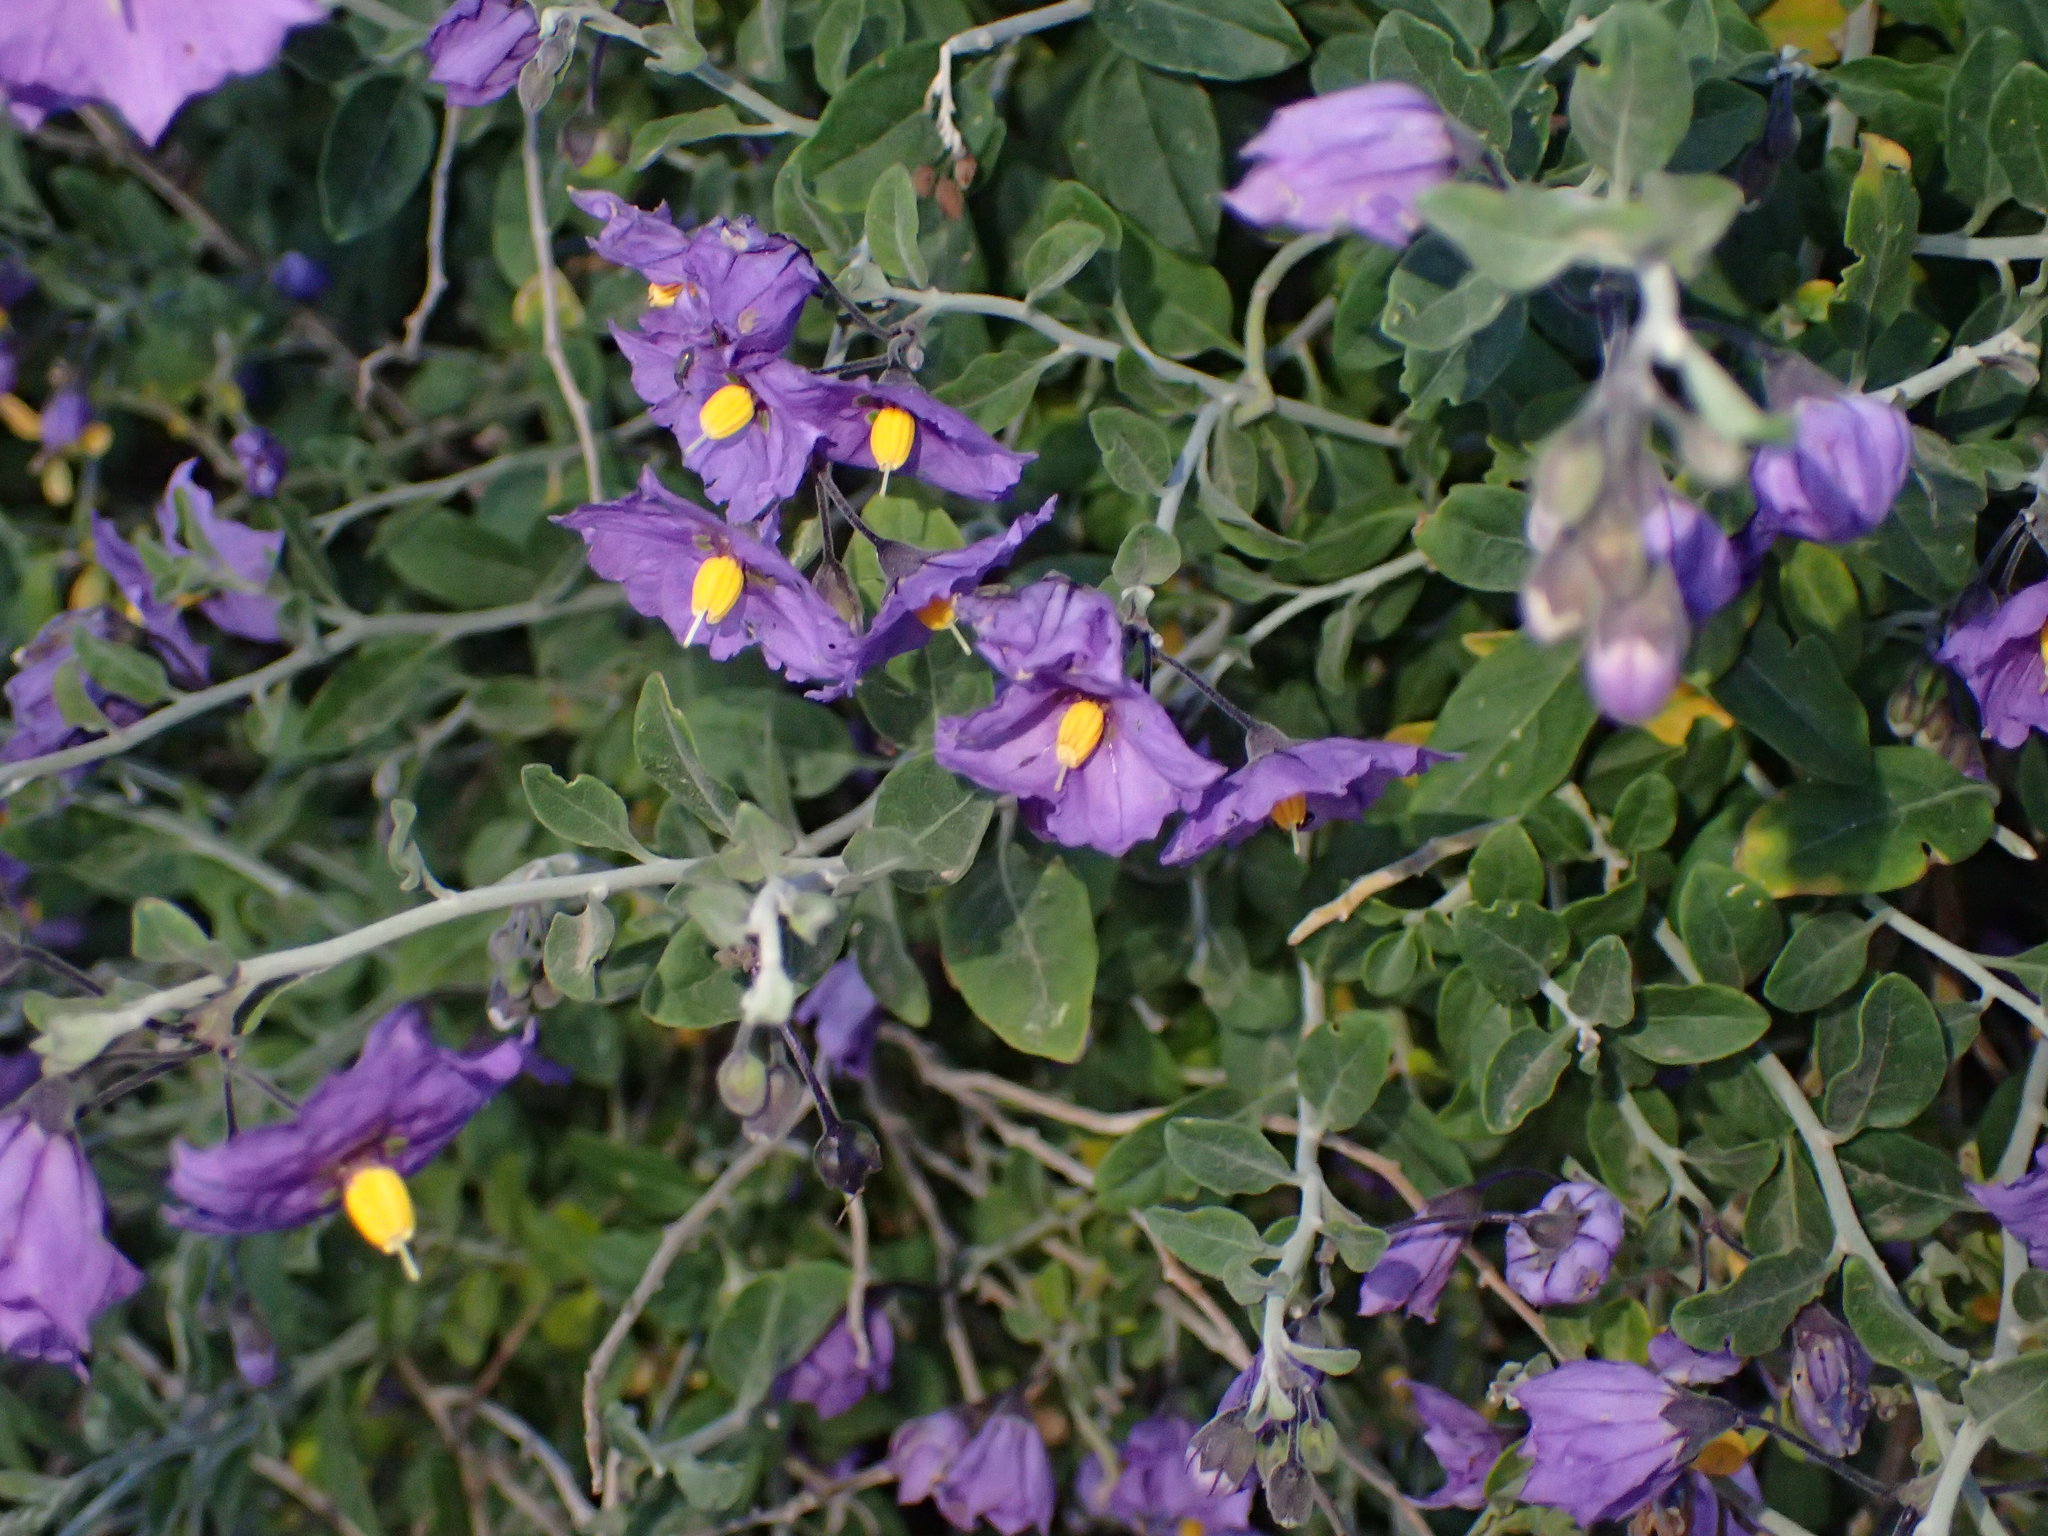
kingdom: Plantae
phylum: Tracheophyta
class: Magnoliopsida
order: Solanales
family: Solanaceae
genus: Solanum
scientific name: Solanum umbelliferum
